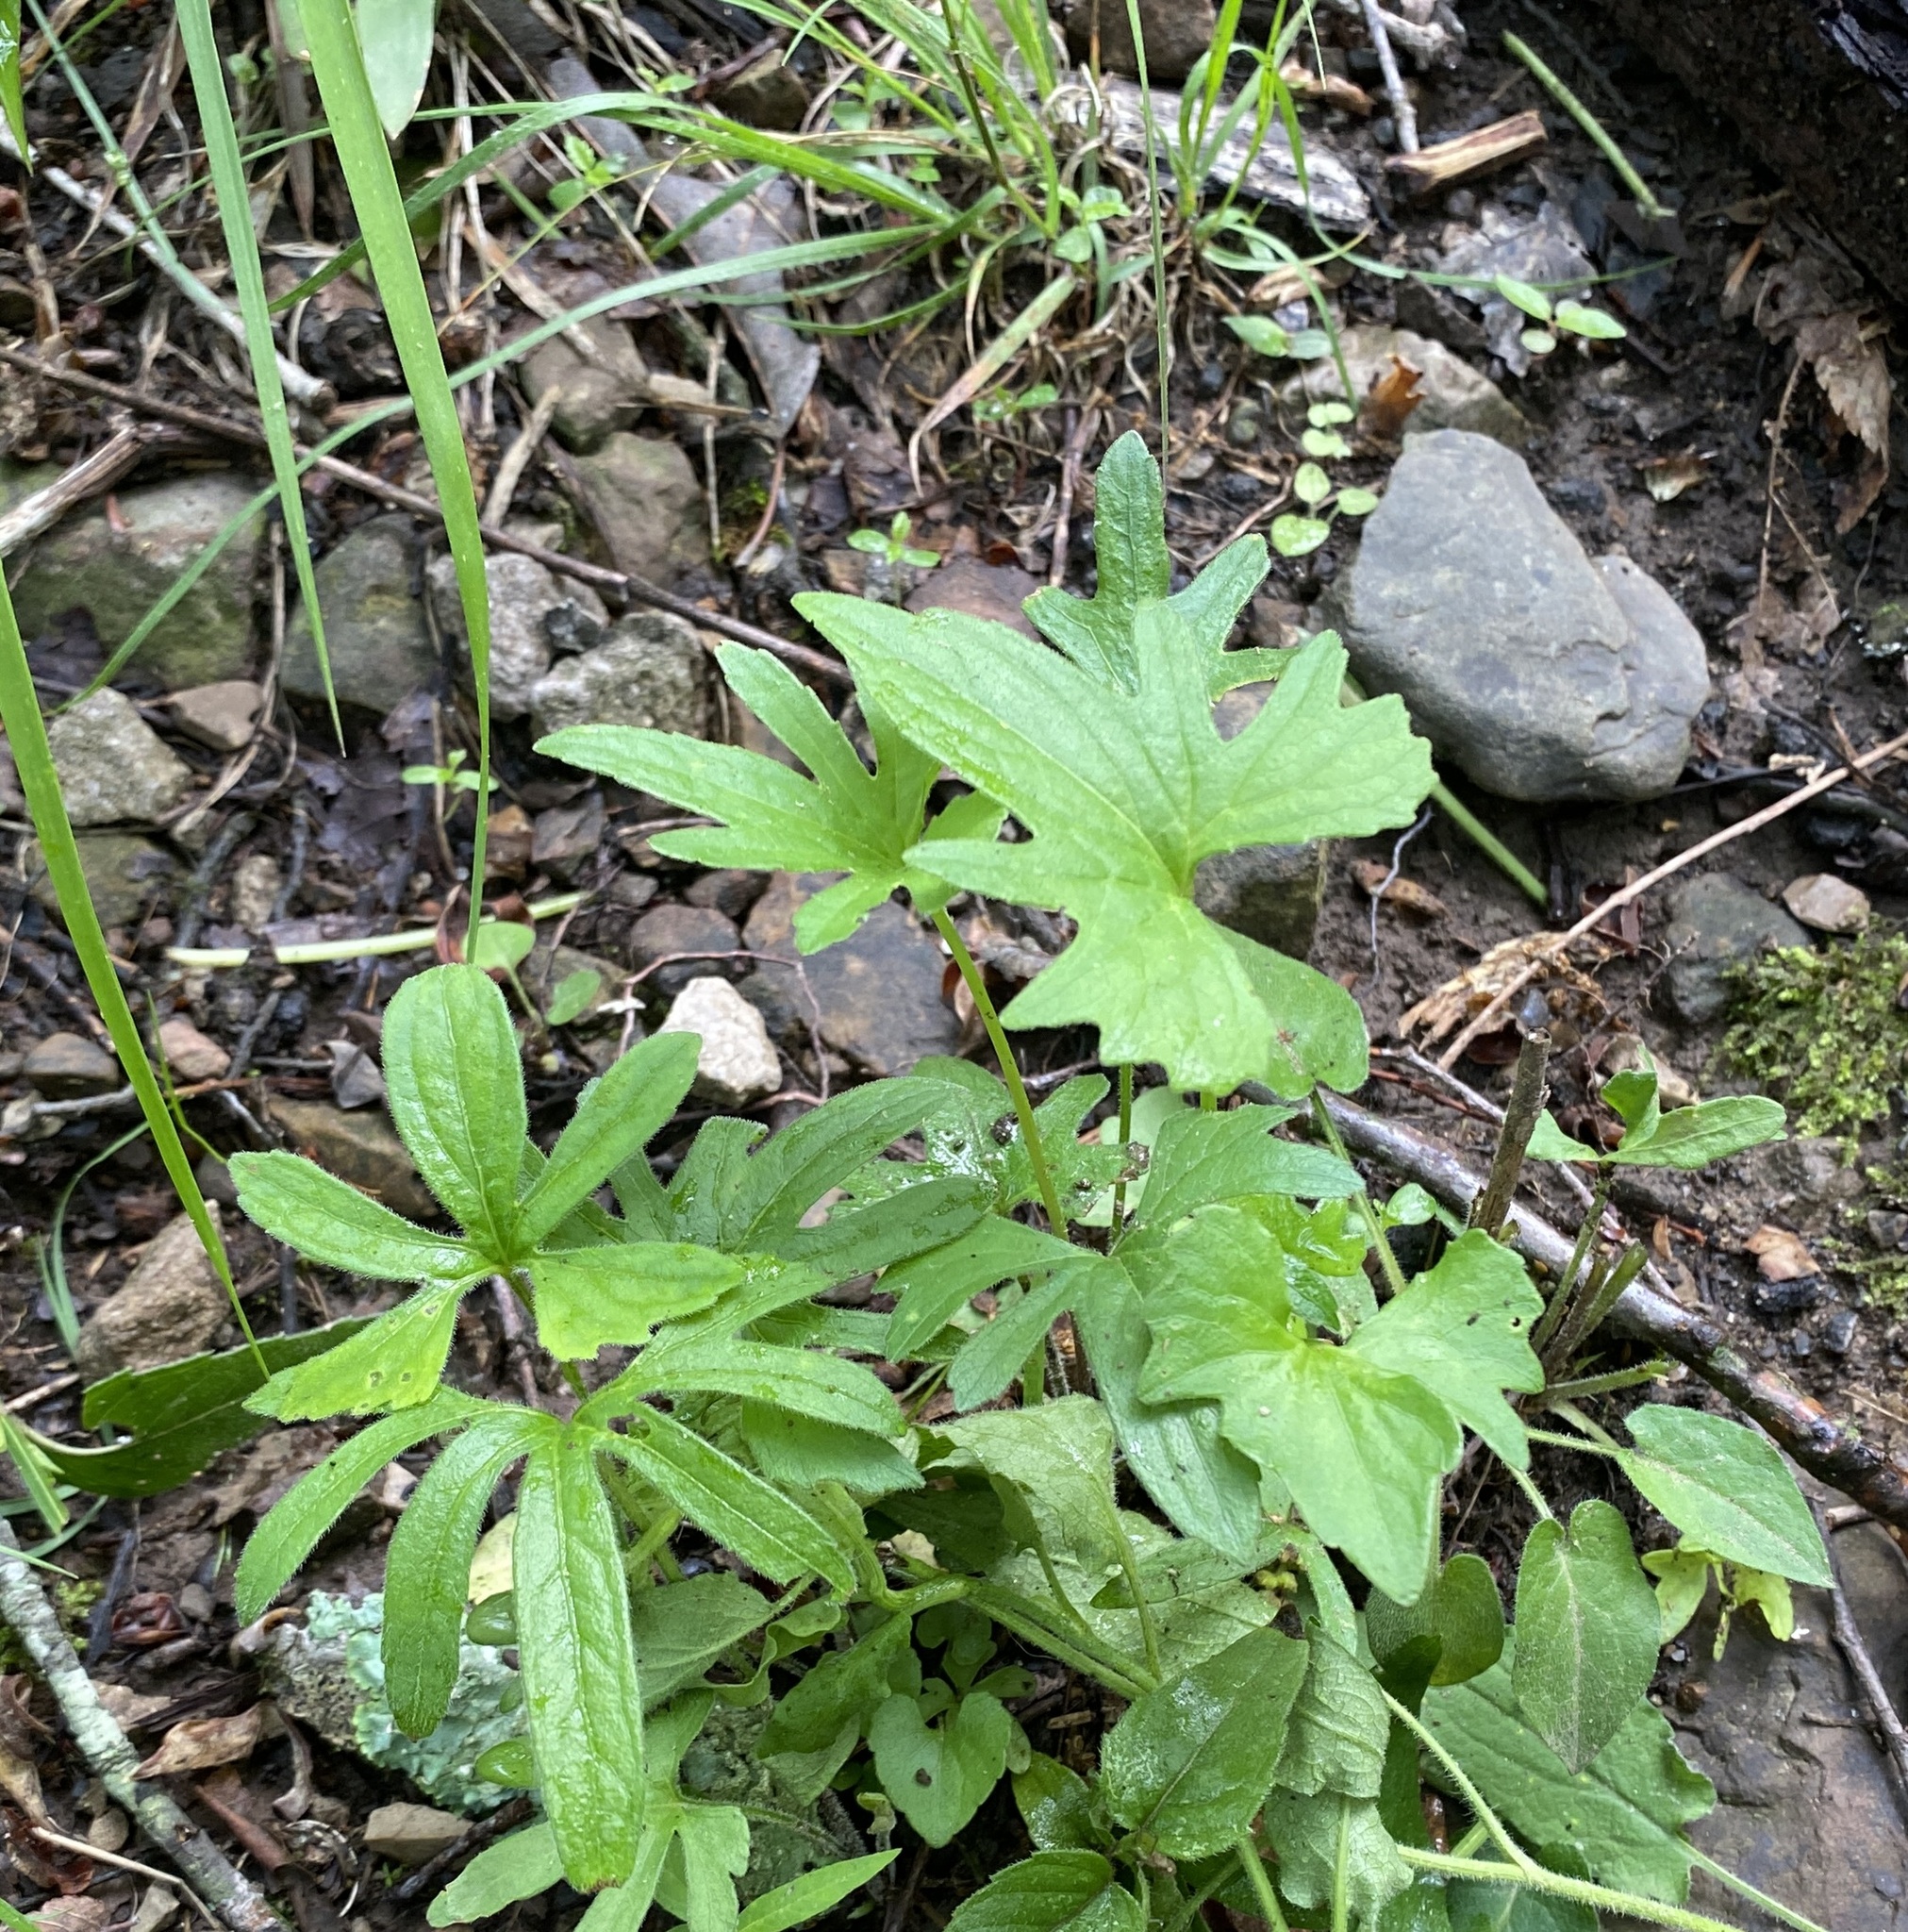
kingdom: Plantae
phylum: Tracheophyta
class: Magnoliopsida
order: Malpighiales
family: Violaceae
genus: Viola
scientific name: Viola palmata
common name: Early blue violet
